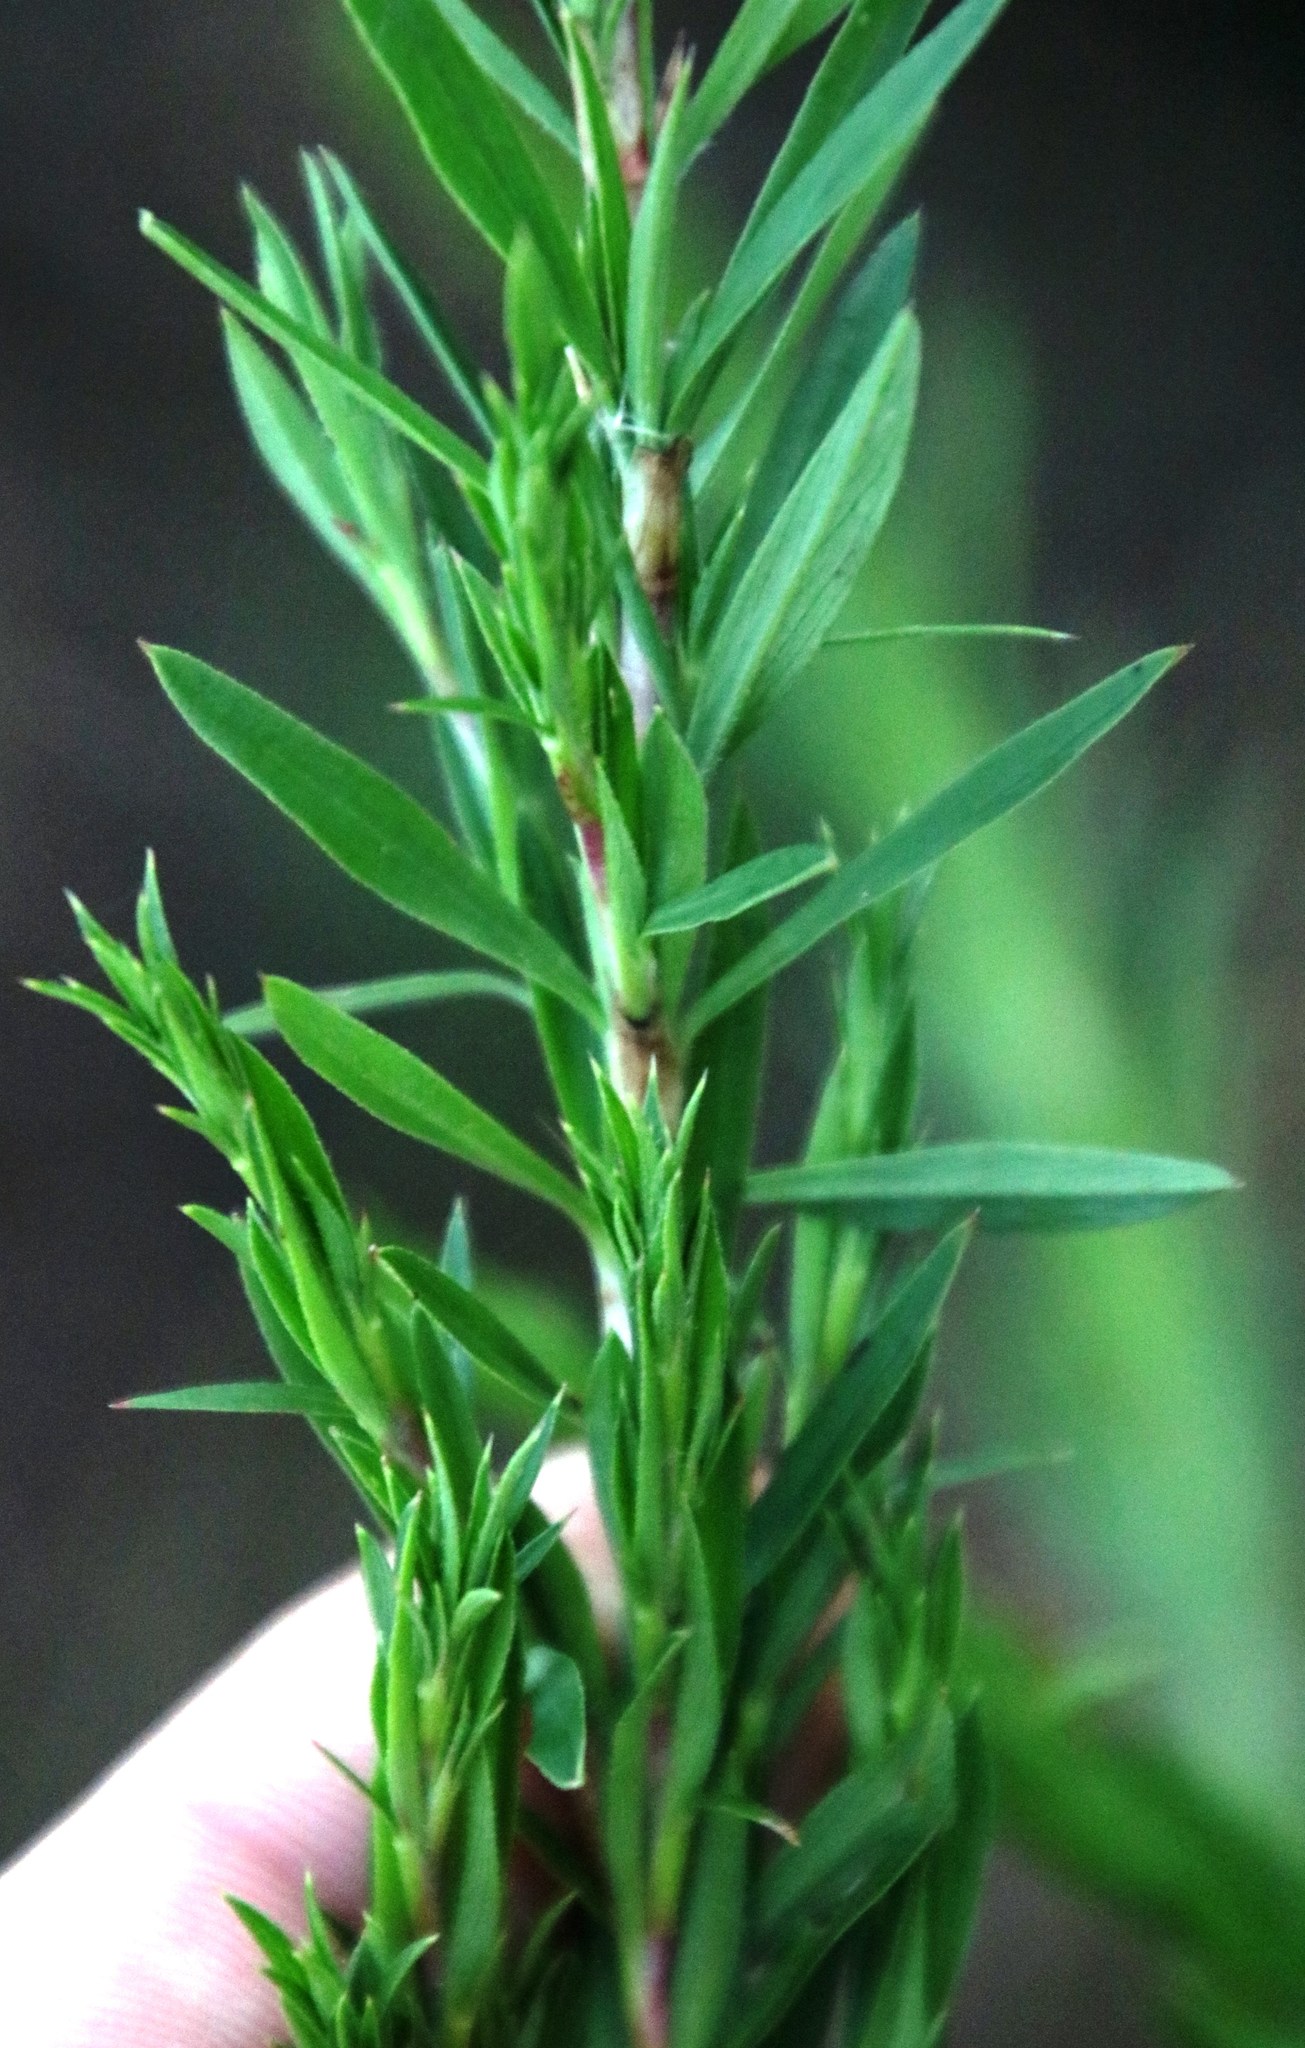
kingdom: Plantae
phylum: Tracheophyta
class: Magnoliopsida
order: Rosales
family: Rosaceae
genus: Cliffortia
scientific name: Cliffortia strobilifera
